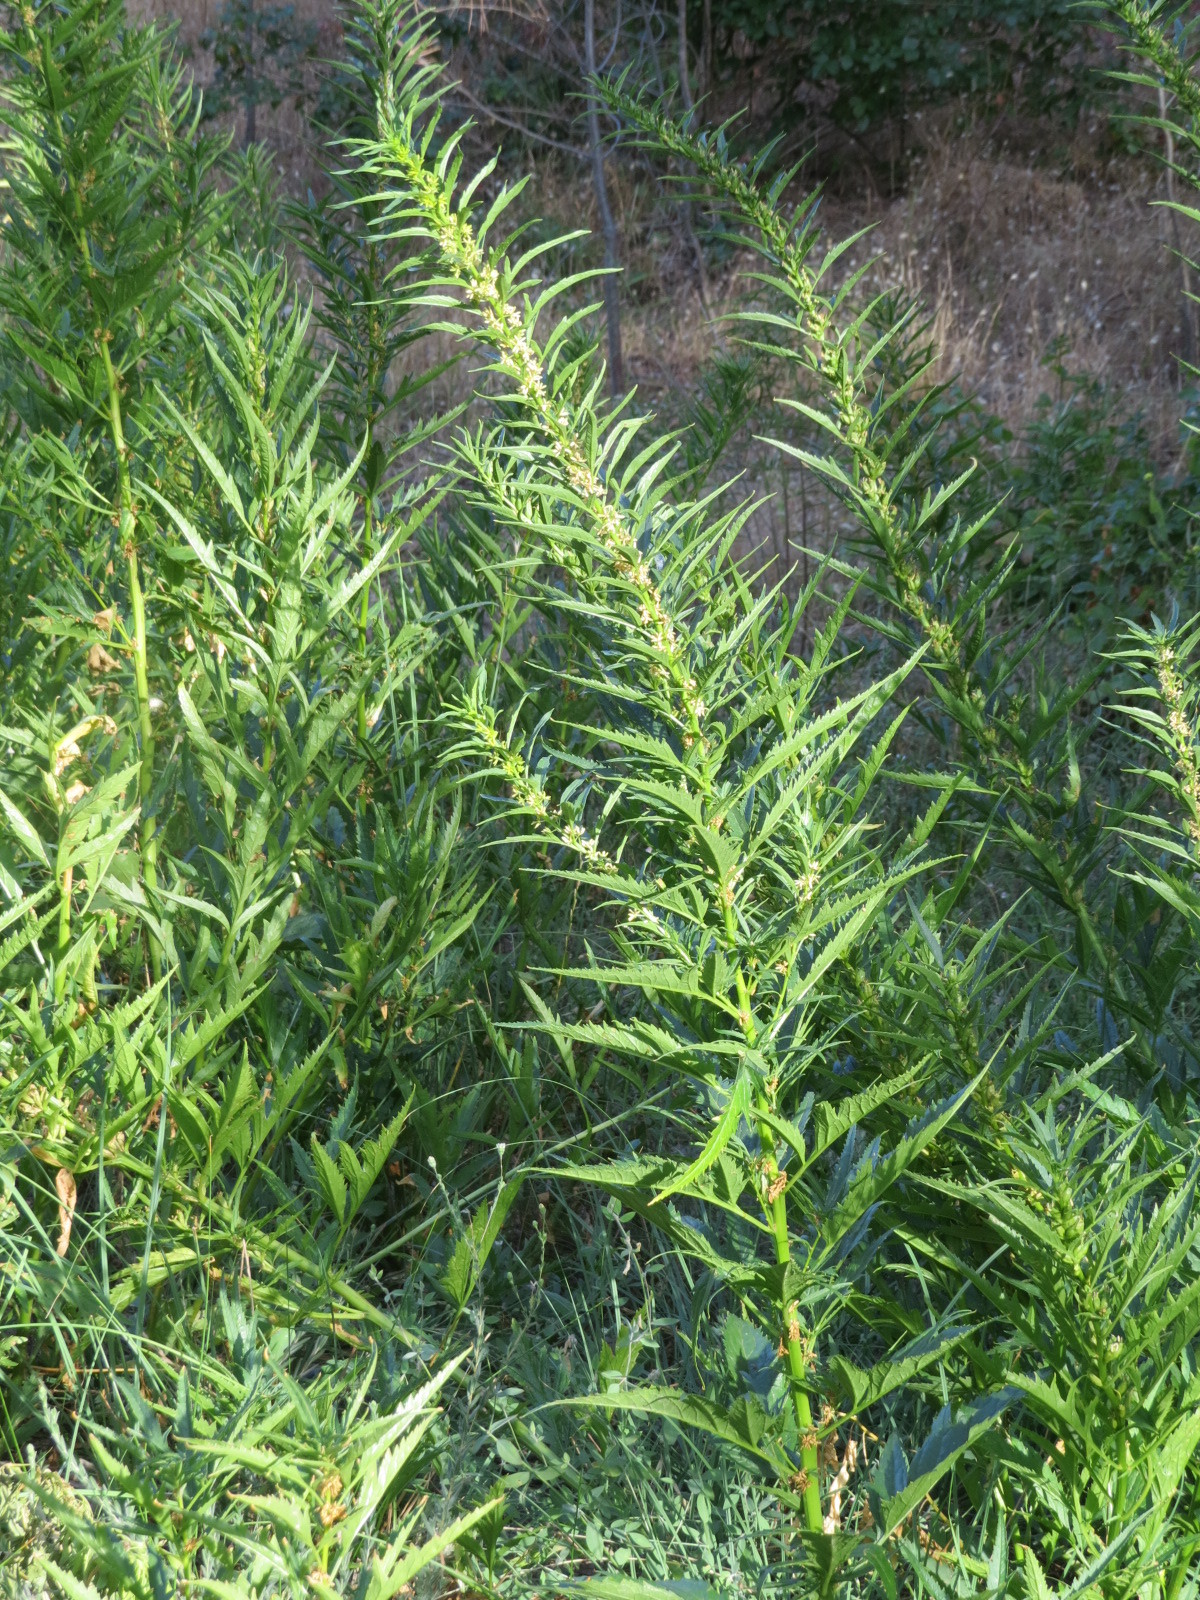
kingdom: Plantae
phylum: Tracheophyta
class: Magnoliopsida
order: Cucurbitales
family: Datiscaceae
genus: Datisca
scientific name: Datisca glomerata
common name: Durango-root
